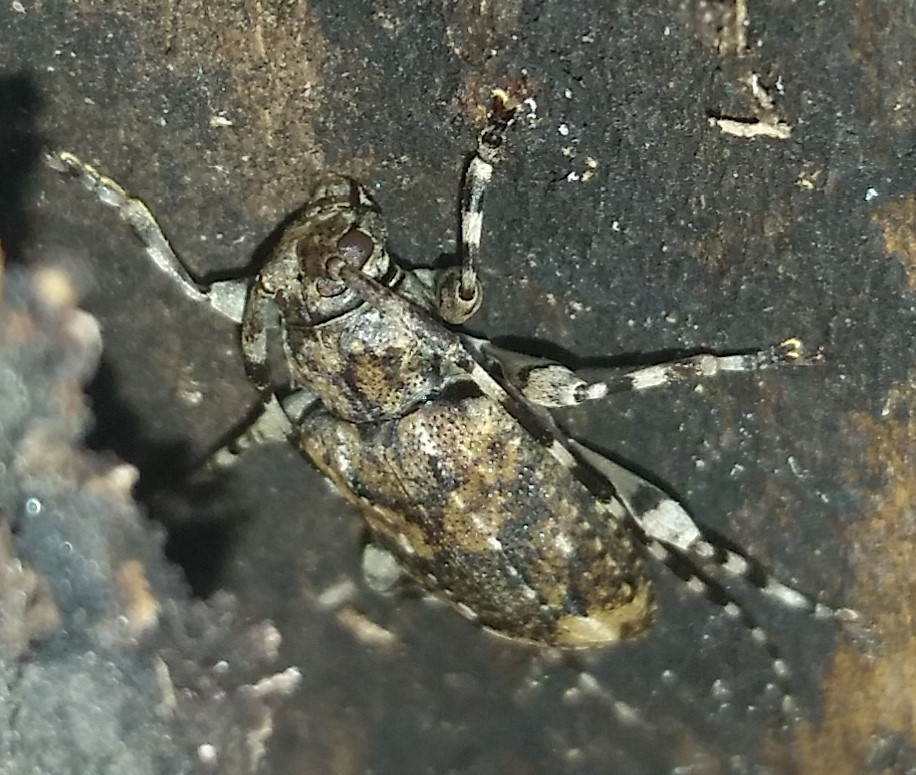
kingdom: Animalia
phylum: Arthropoda
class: Insecta
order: Coleoptera
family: Cerambycidae
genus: Astyleiopus
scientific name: Astyleiopus variegatus
